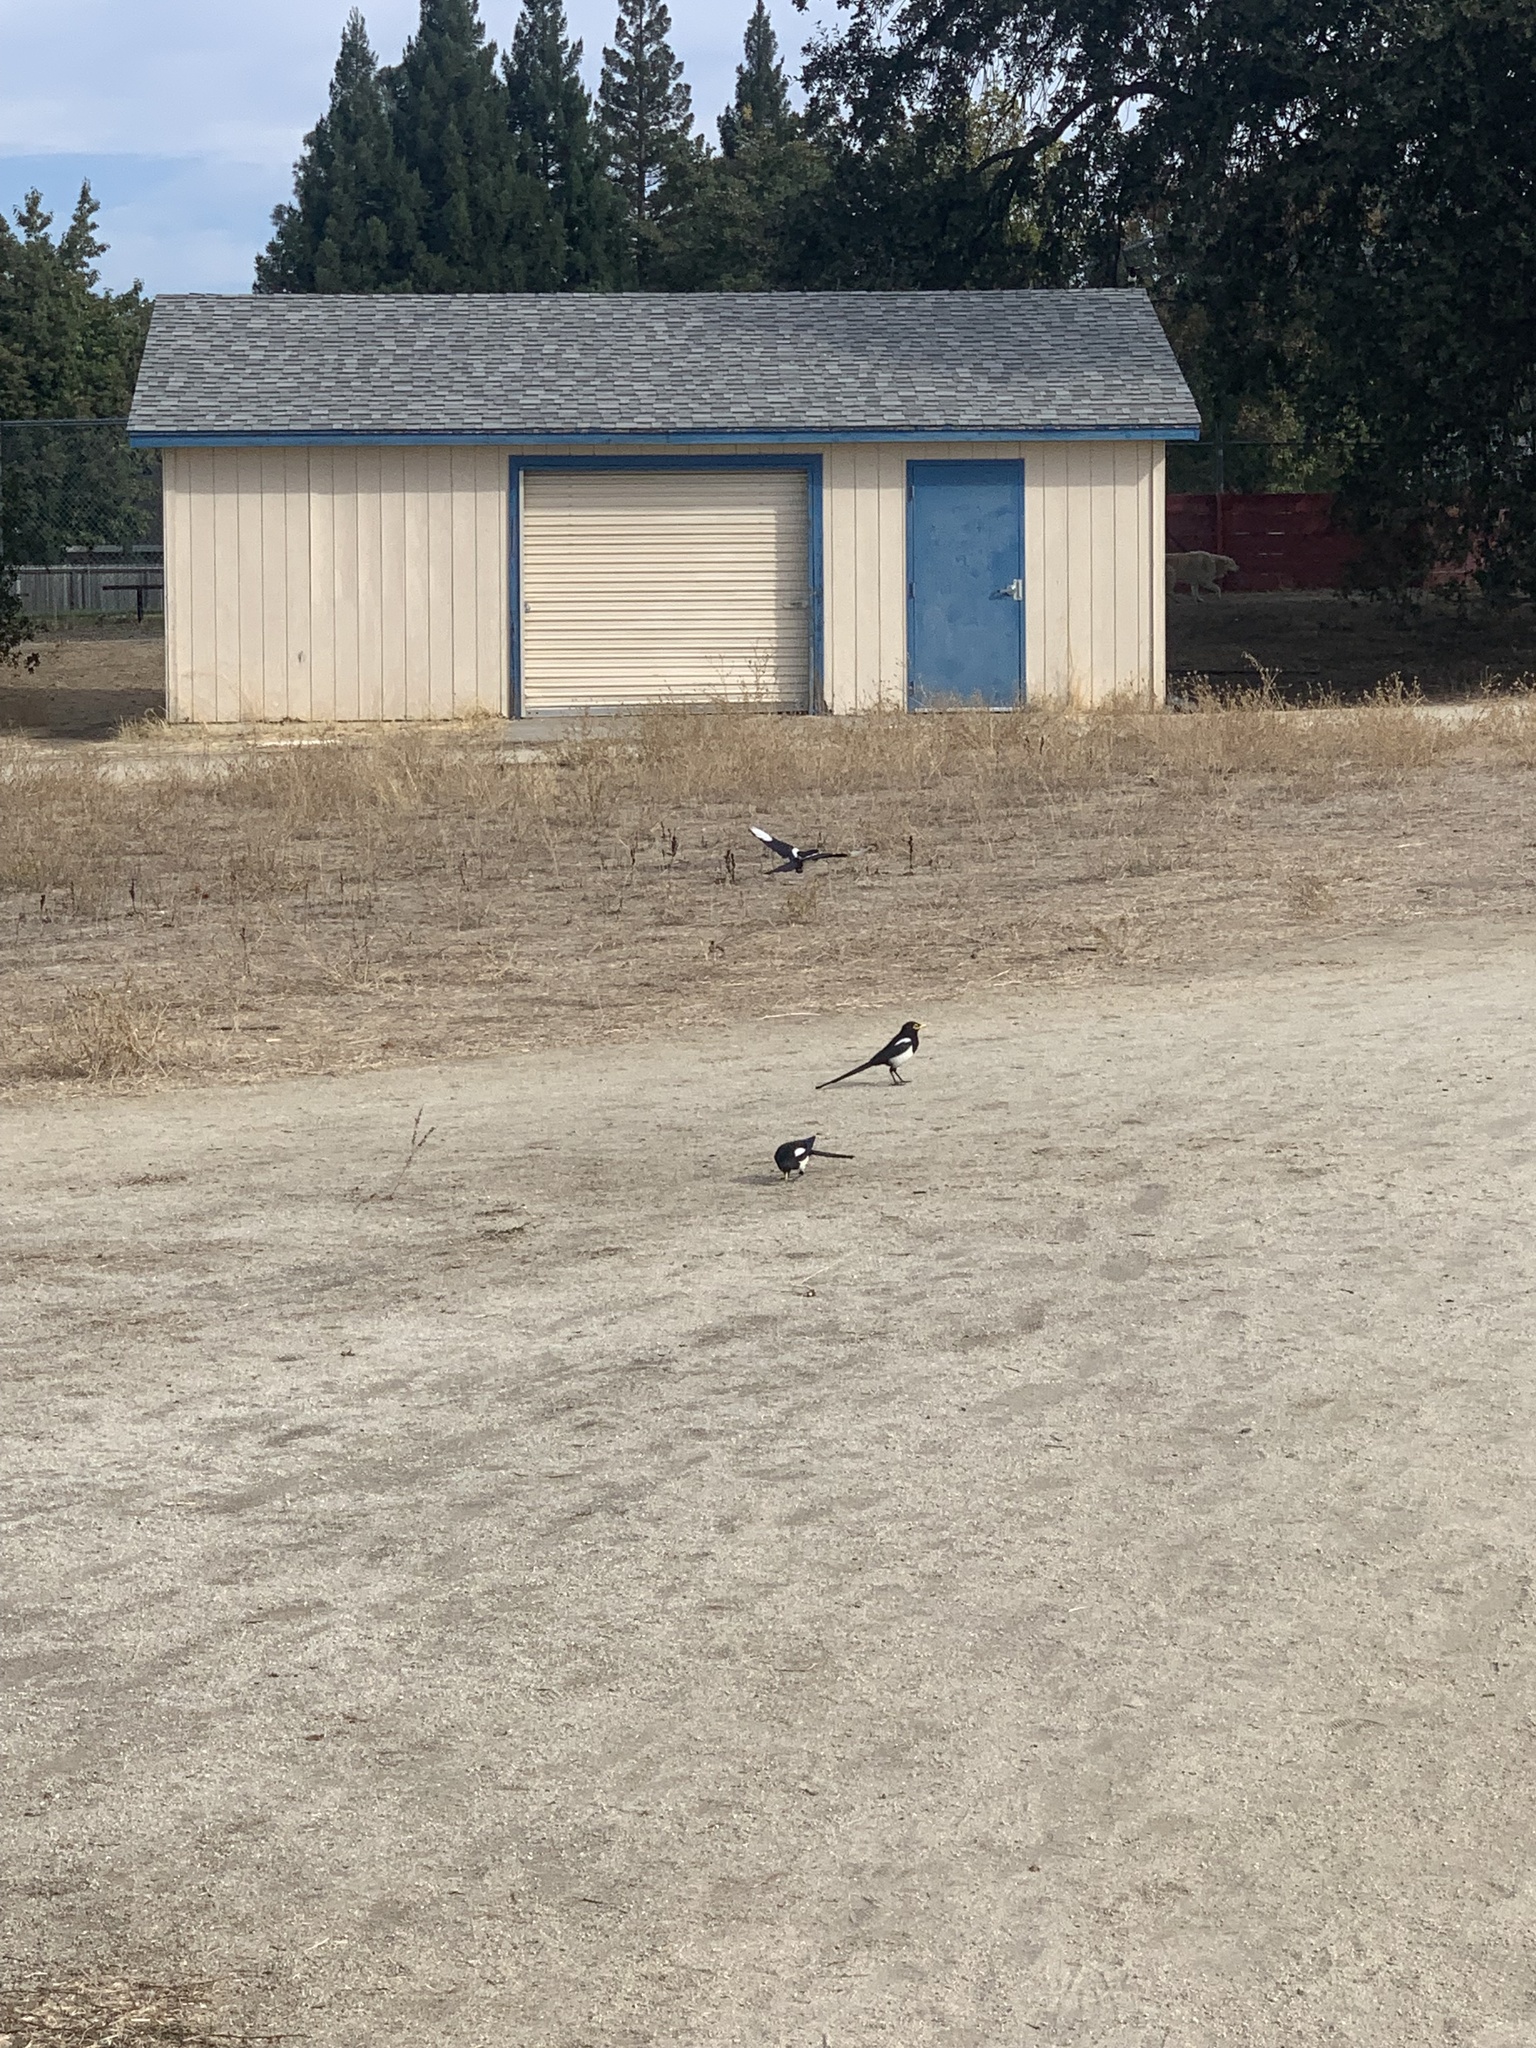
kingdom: Animalia
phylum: Chordata
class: Aves
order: Passeriformes
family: Corvidae
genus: Pica
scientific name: Pica nuttalli
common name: Yellow-billed magpie
